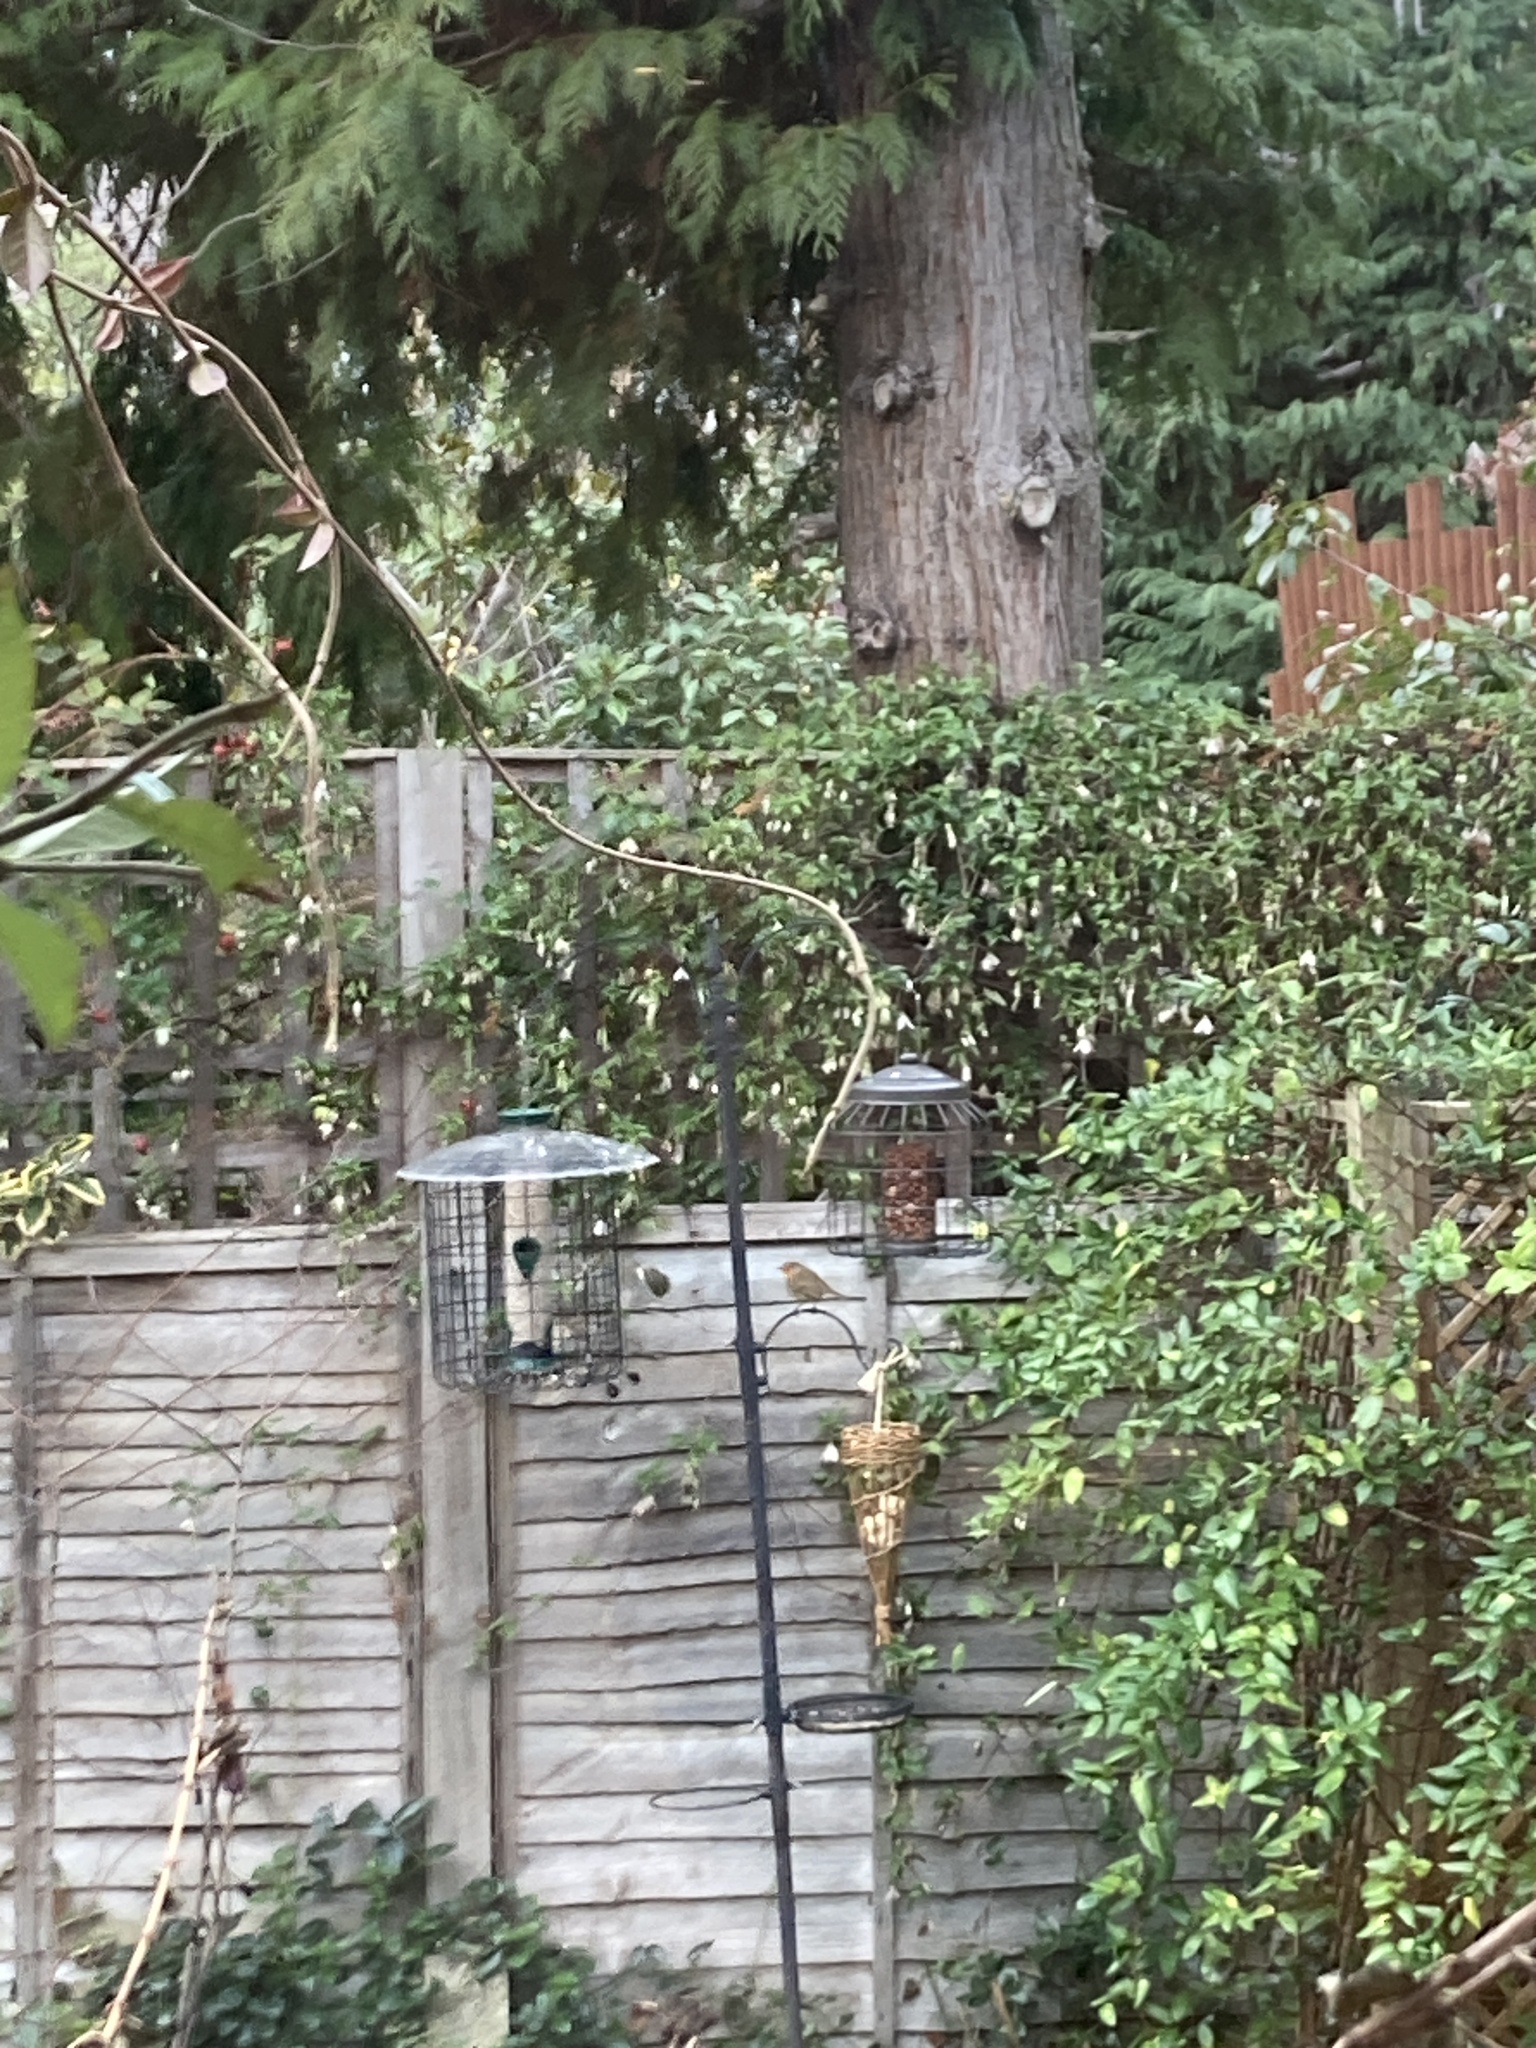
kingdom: Animalia
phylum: Chordata
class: Aves
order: Passeriformes
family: Muscicapidae
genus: Erithacus
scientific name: Erithacus rubecula
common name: European robin
